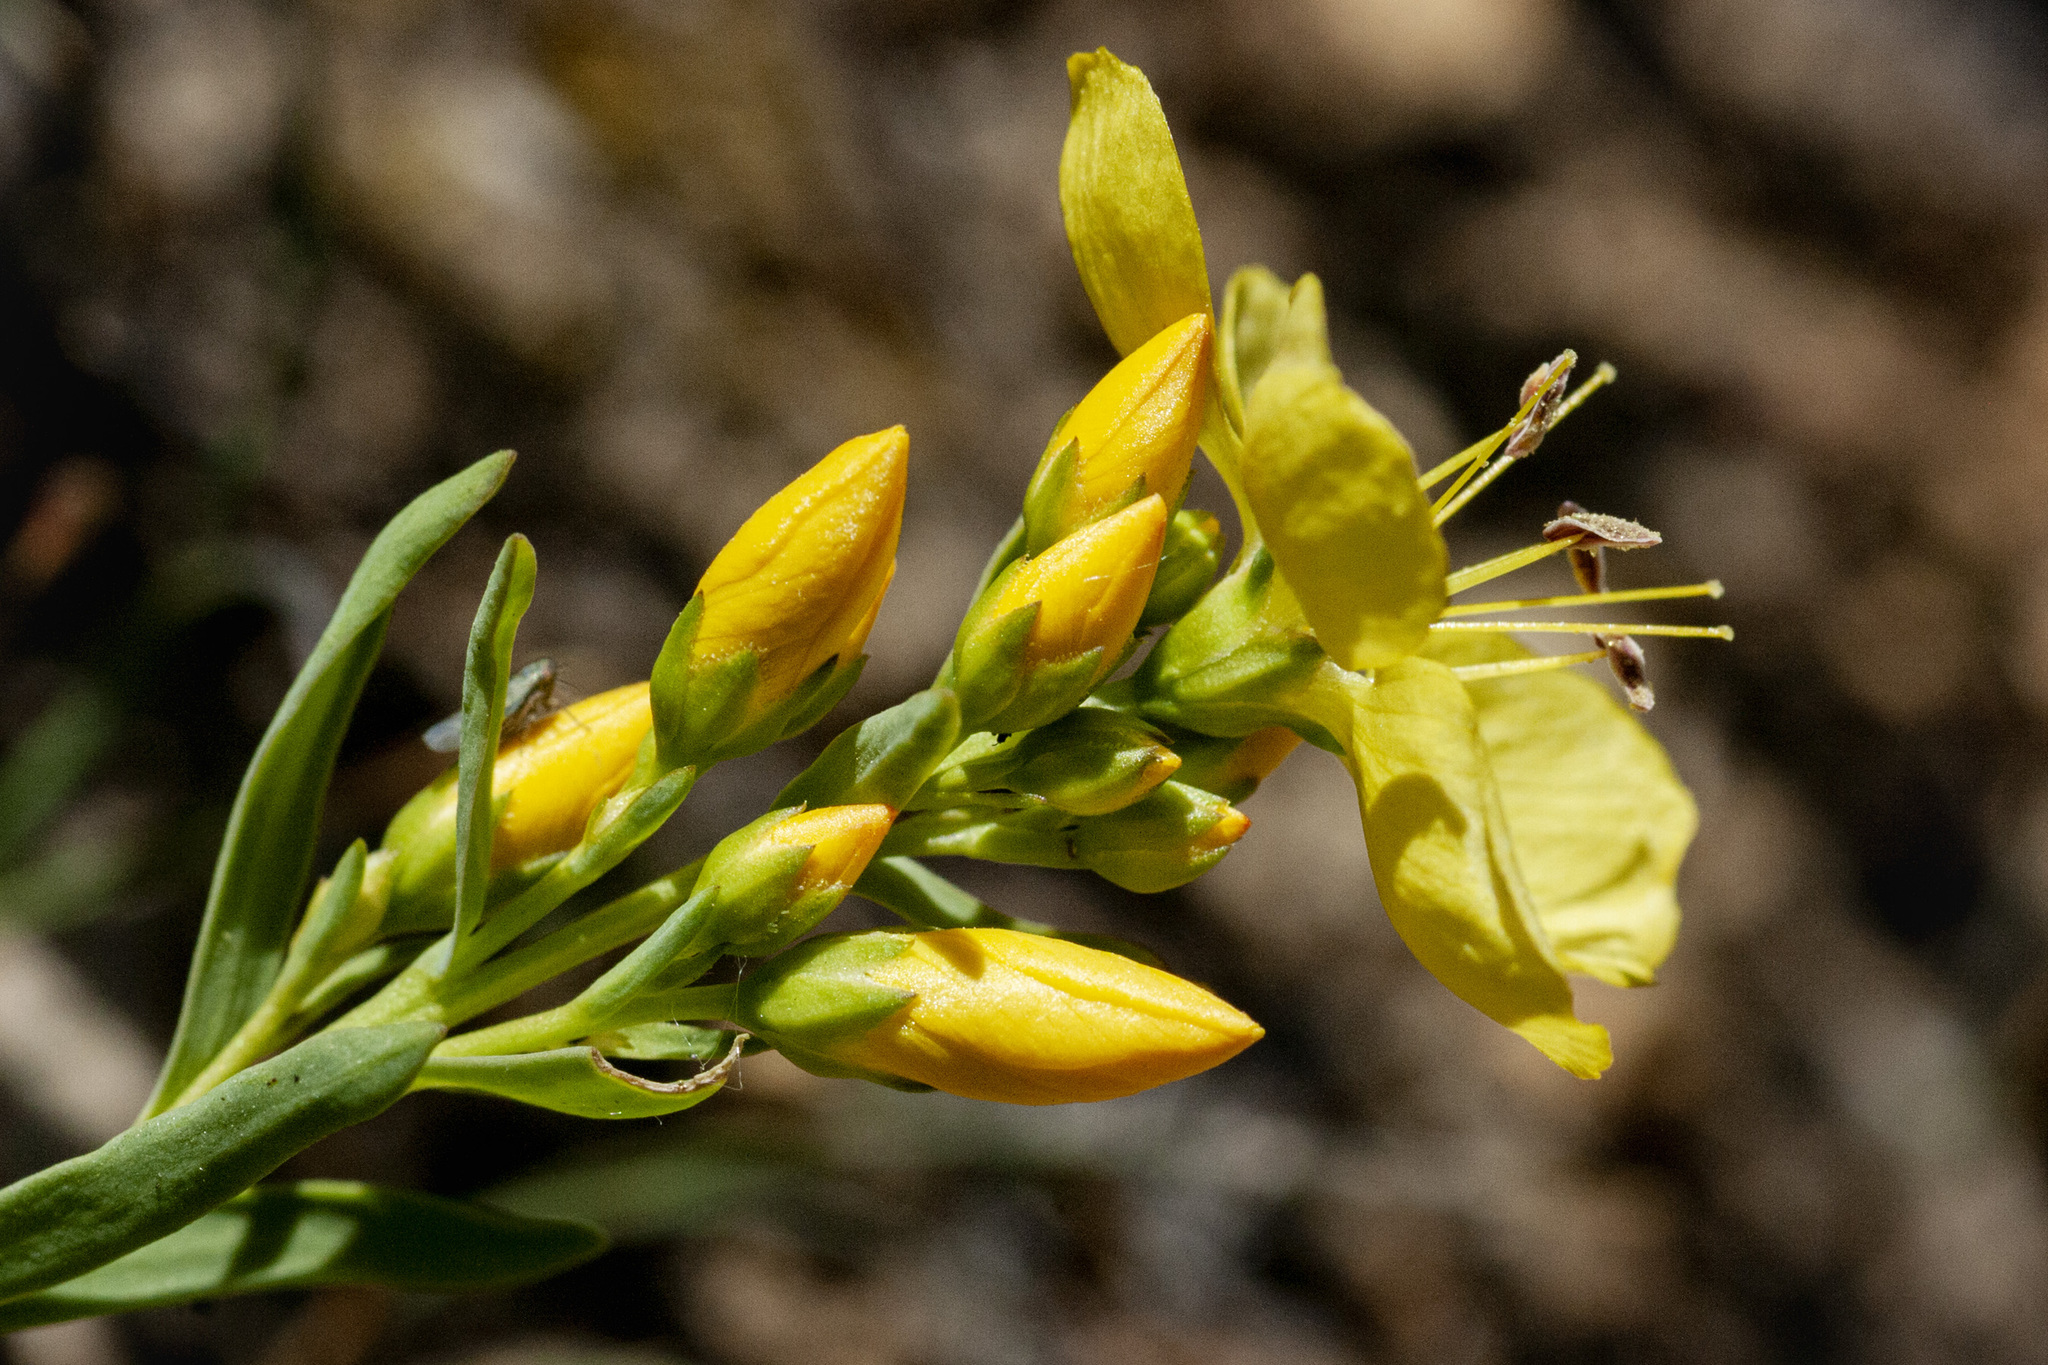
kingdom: Plantae
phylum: Tracheophyta
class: Magnoliopsida
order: Malpighiales
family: Linaceae
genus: Linum
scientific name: Linum kingii
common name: King's yellow flax
